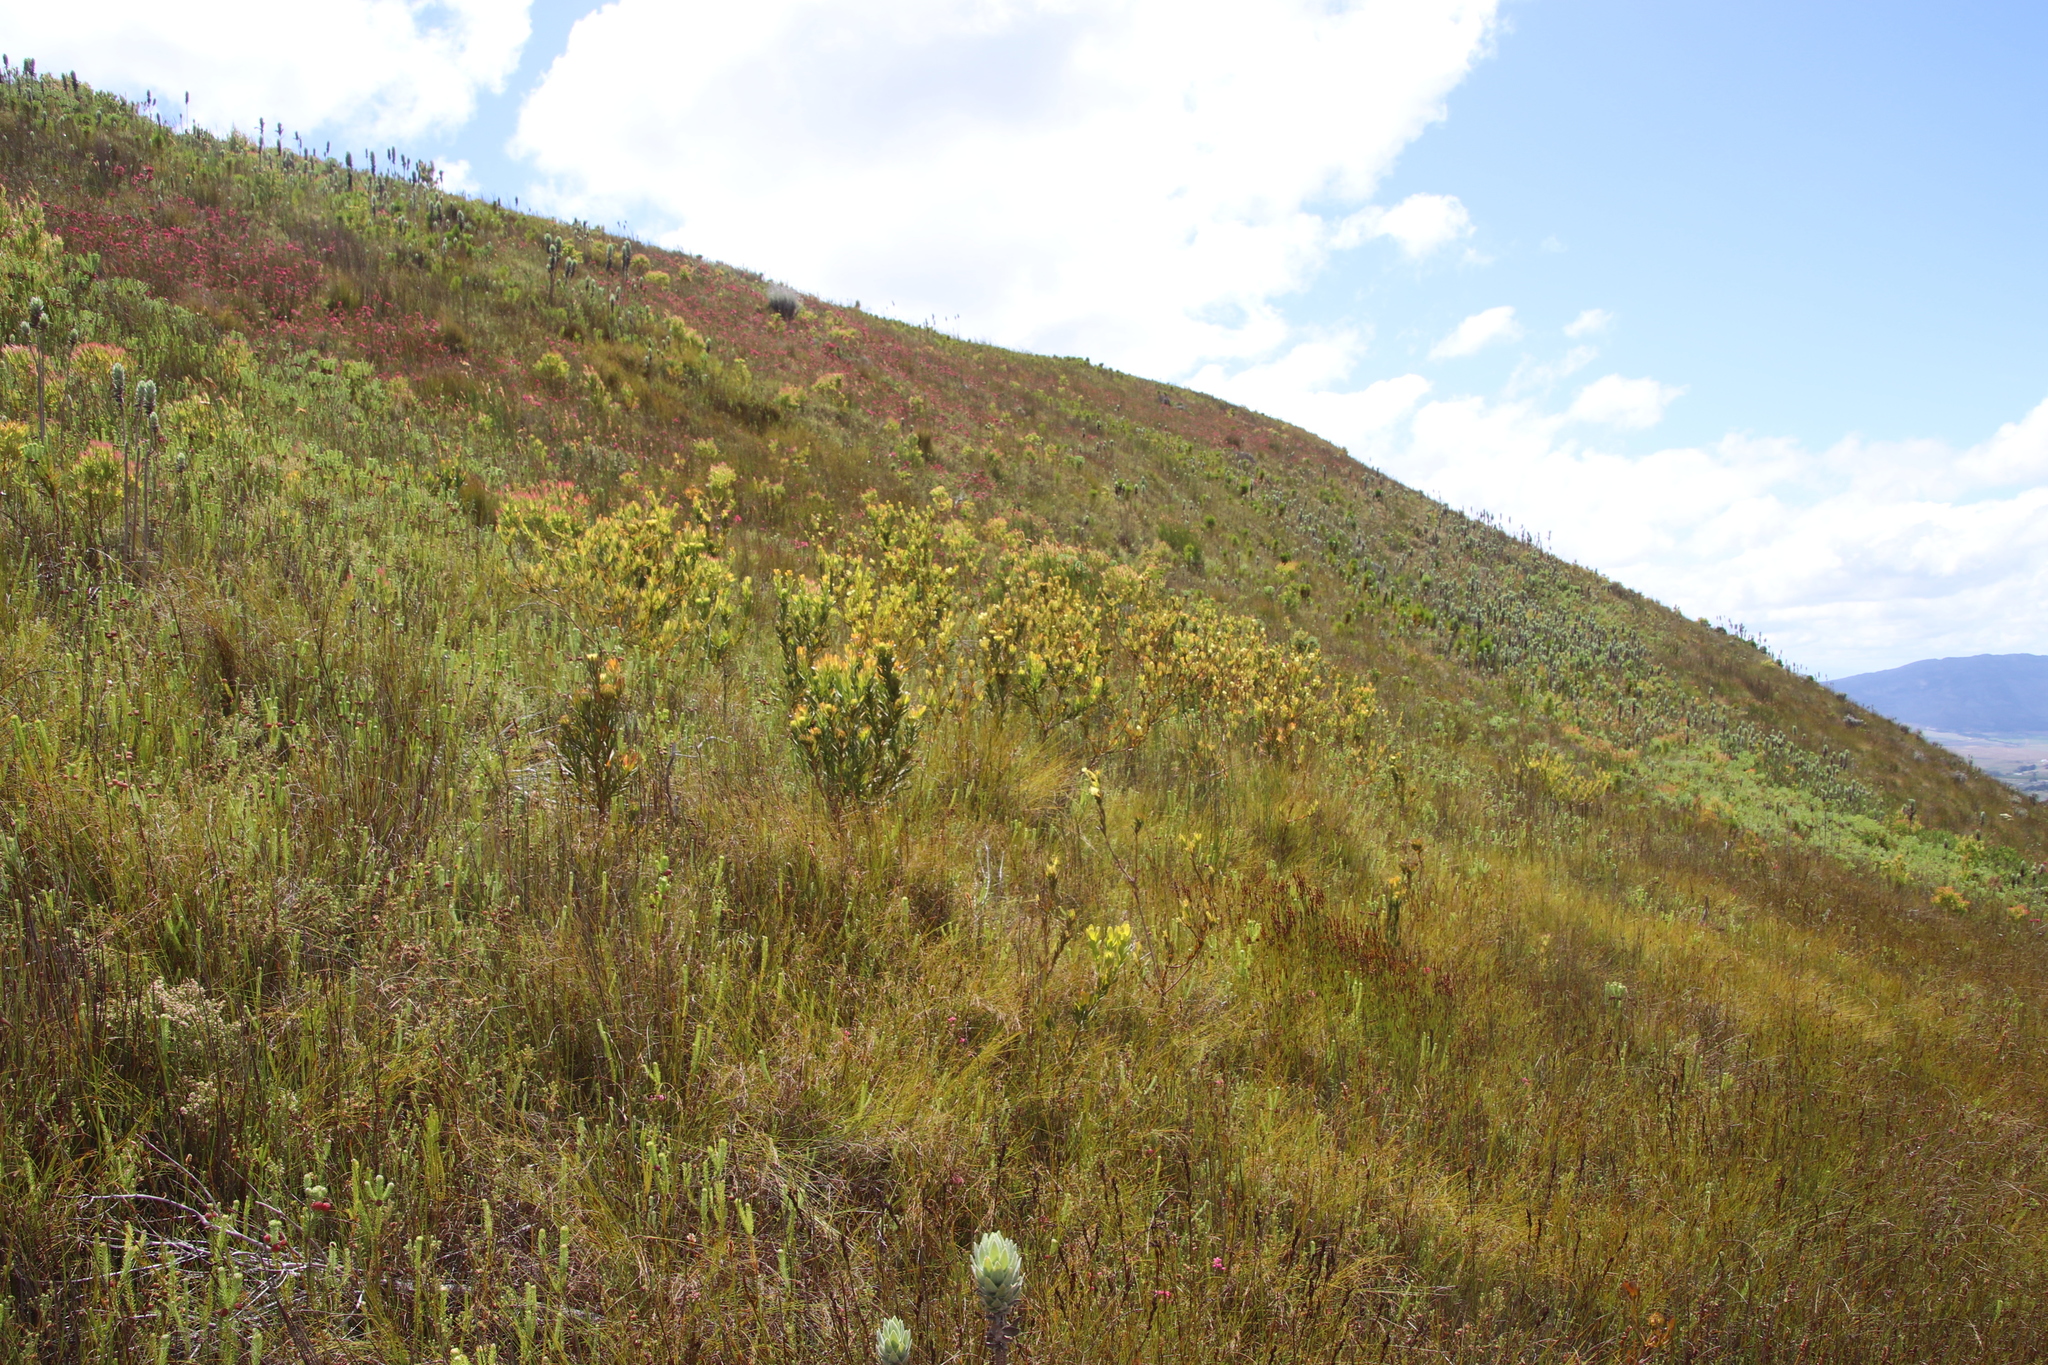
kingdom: Plantae
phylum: Tracheophyta
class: Magnoliopsida
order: Proteales
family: Proteaceae
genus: Aulax
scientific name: Aulax umbellata
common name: Broad-leaf featherbush
